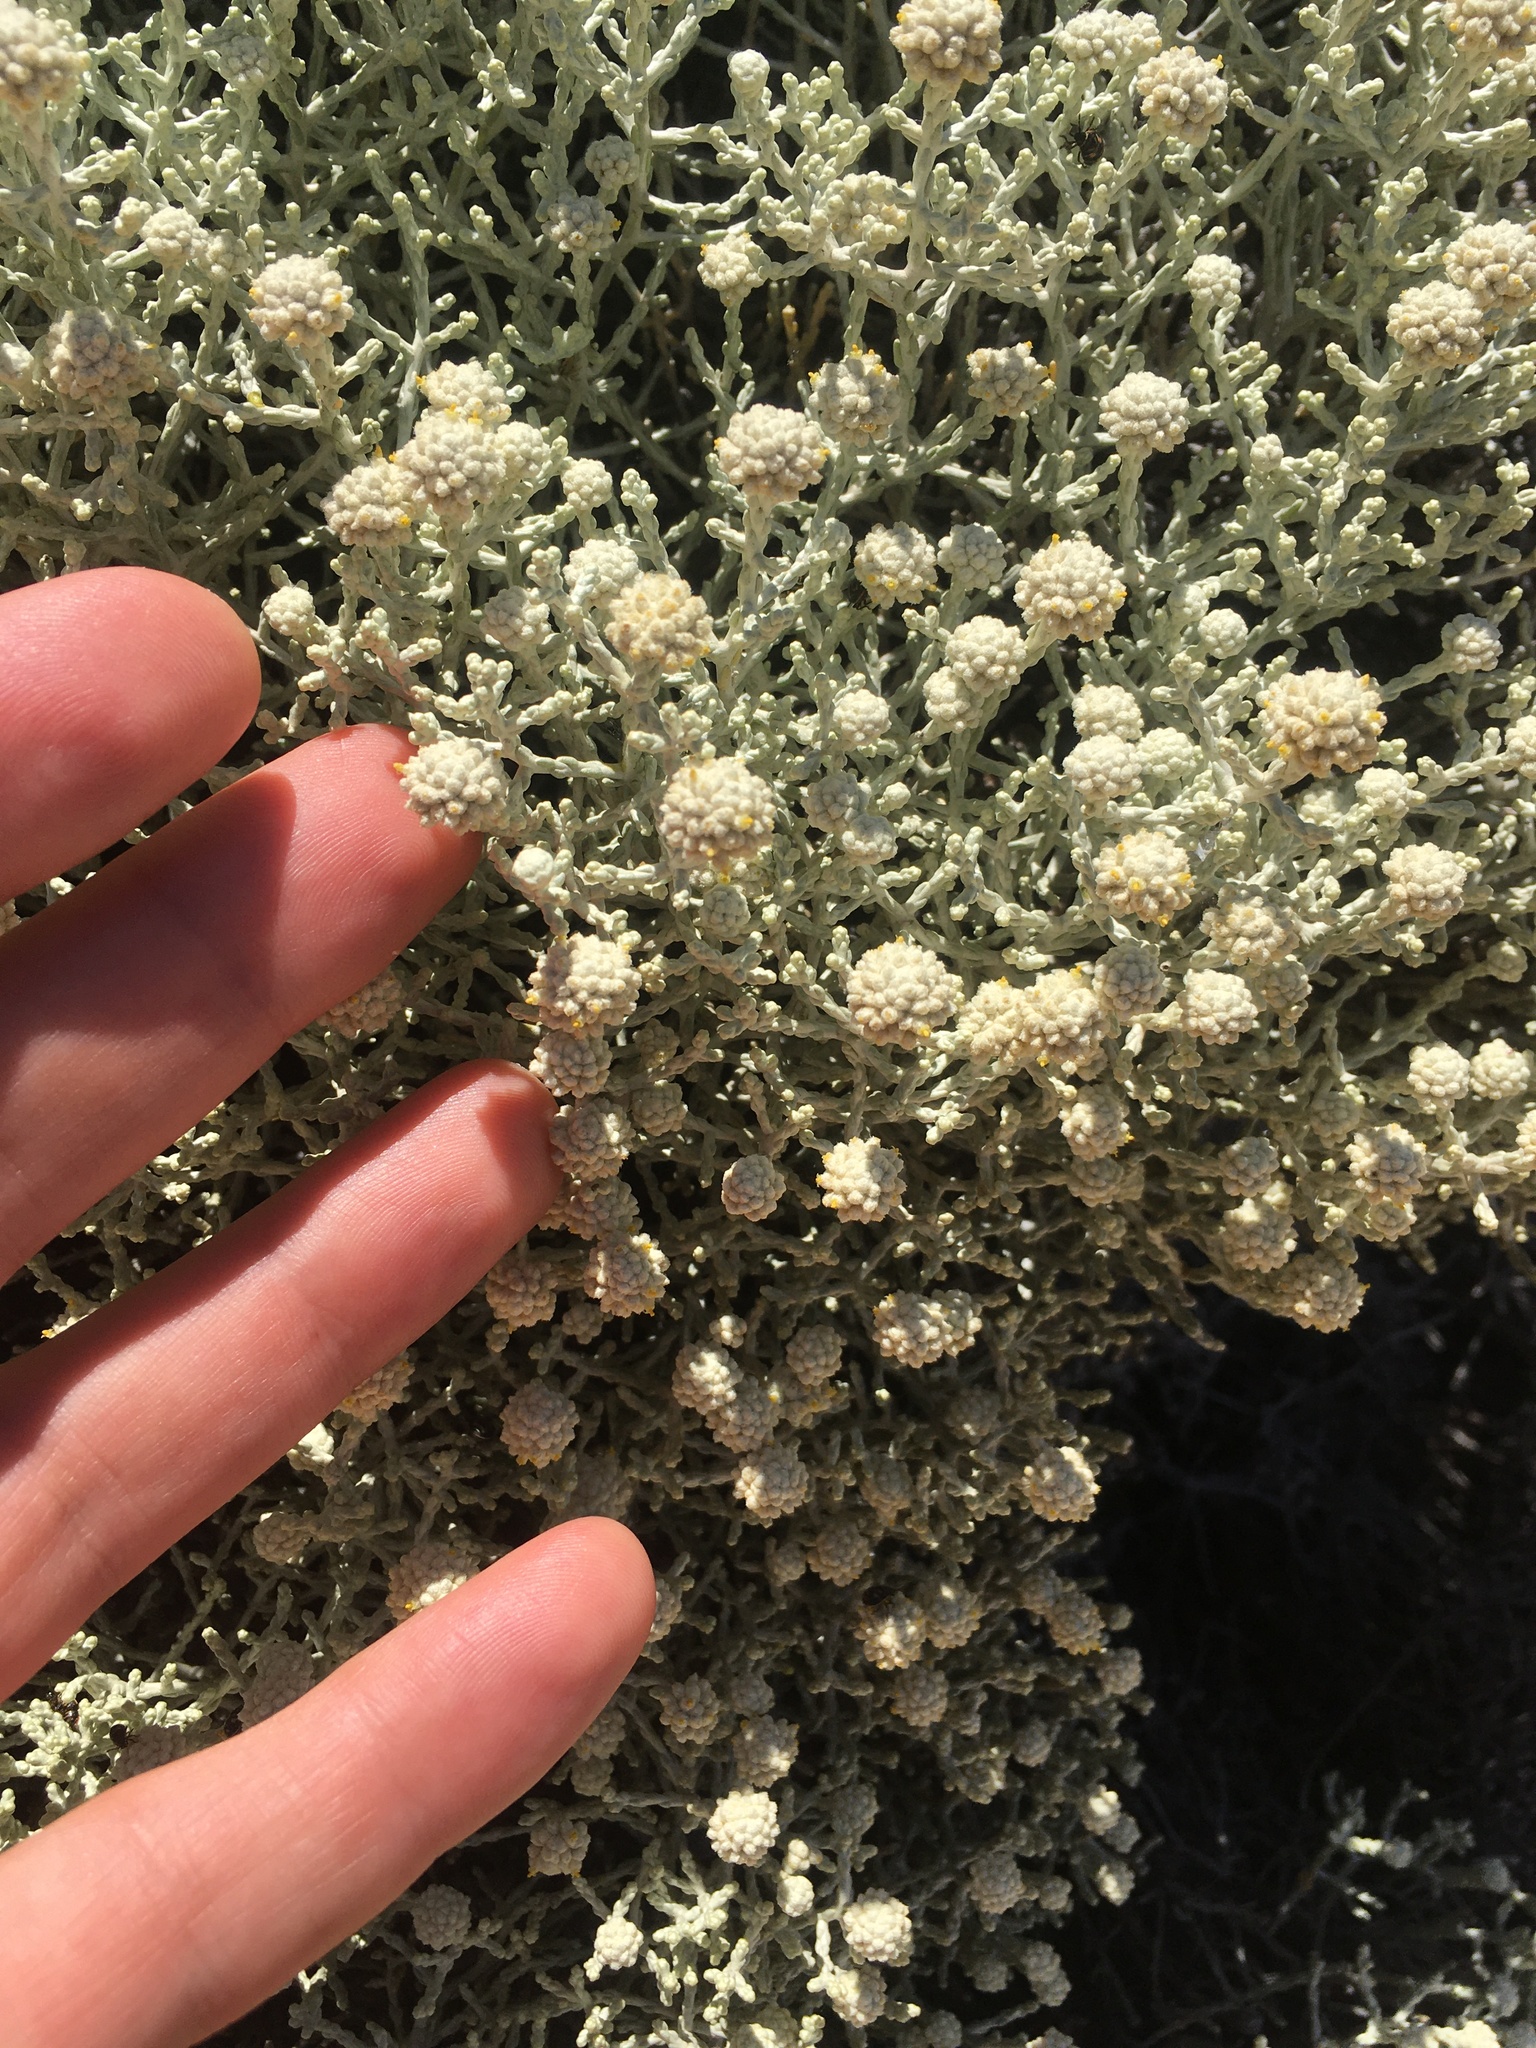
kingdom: Plantae
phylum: Tracheophyta
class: Magnoliopsida
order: Asterales
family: Asteraceae
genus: Calocephalus
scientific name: Calocephalus brownii
